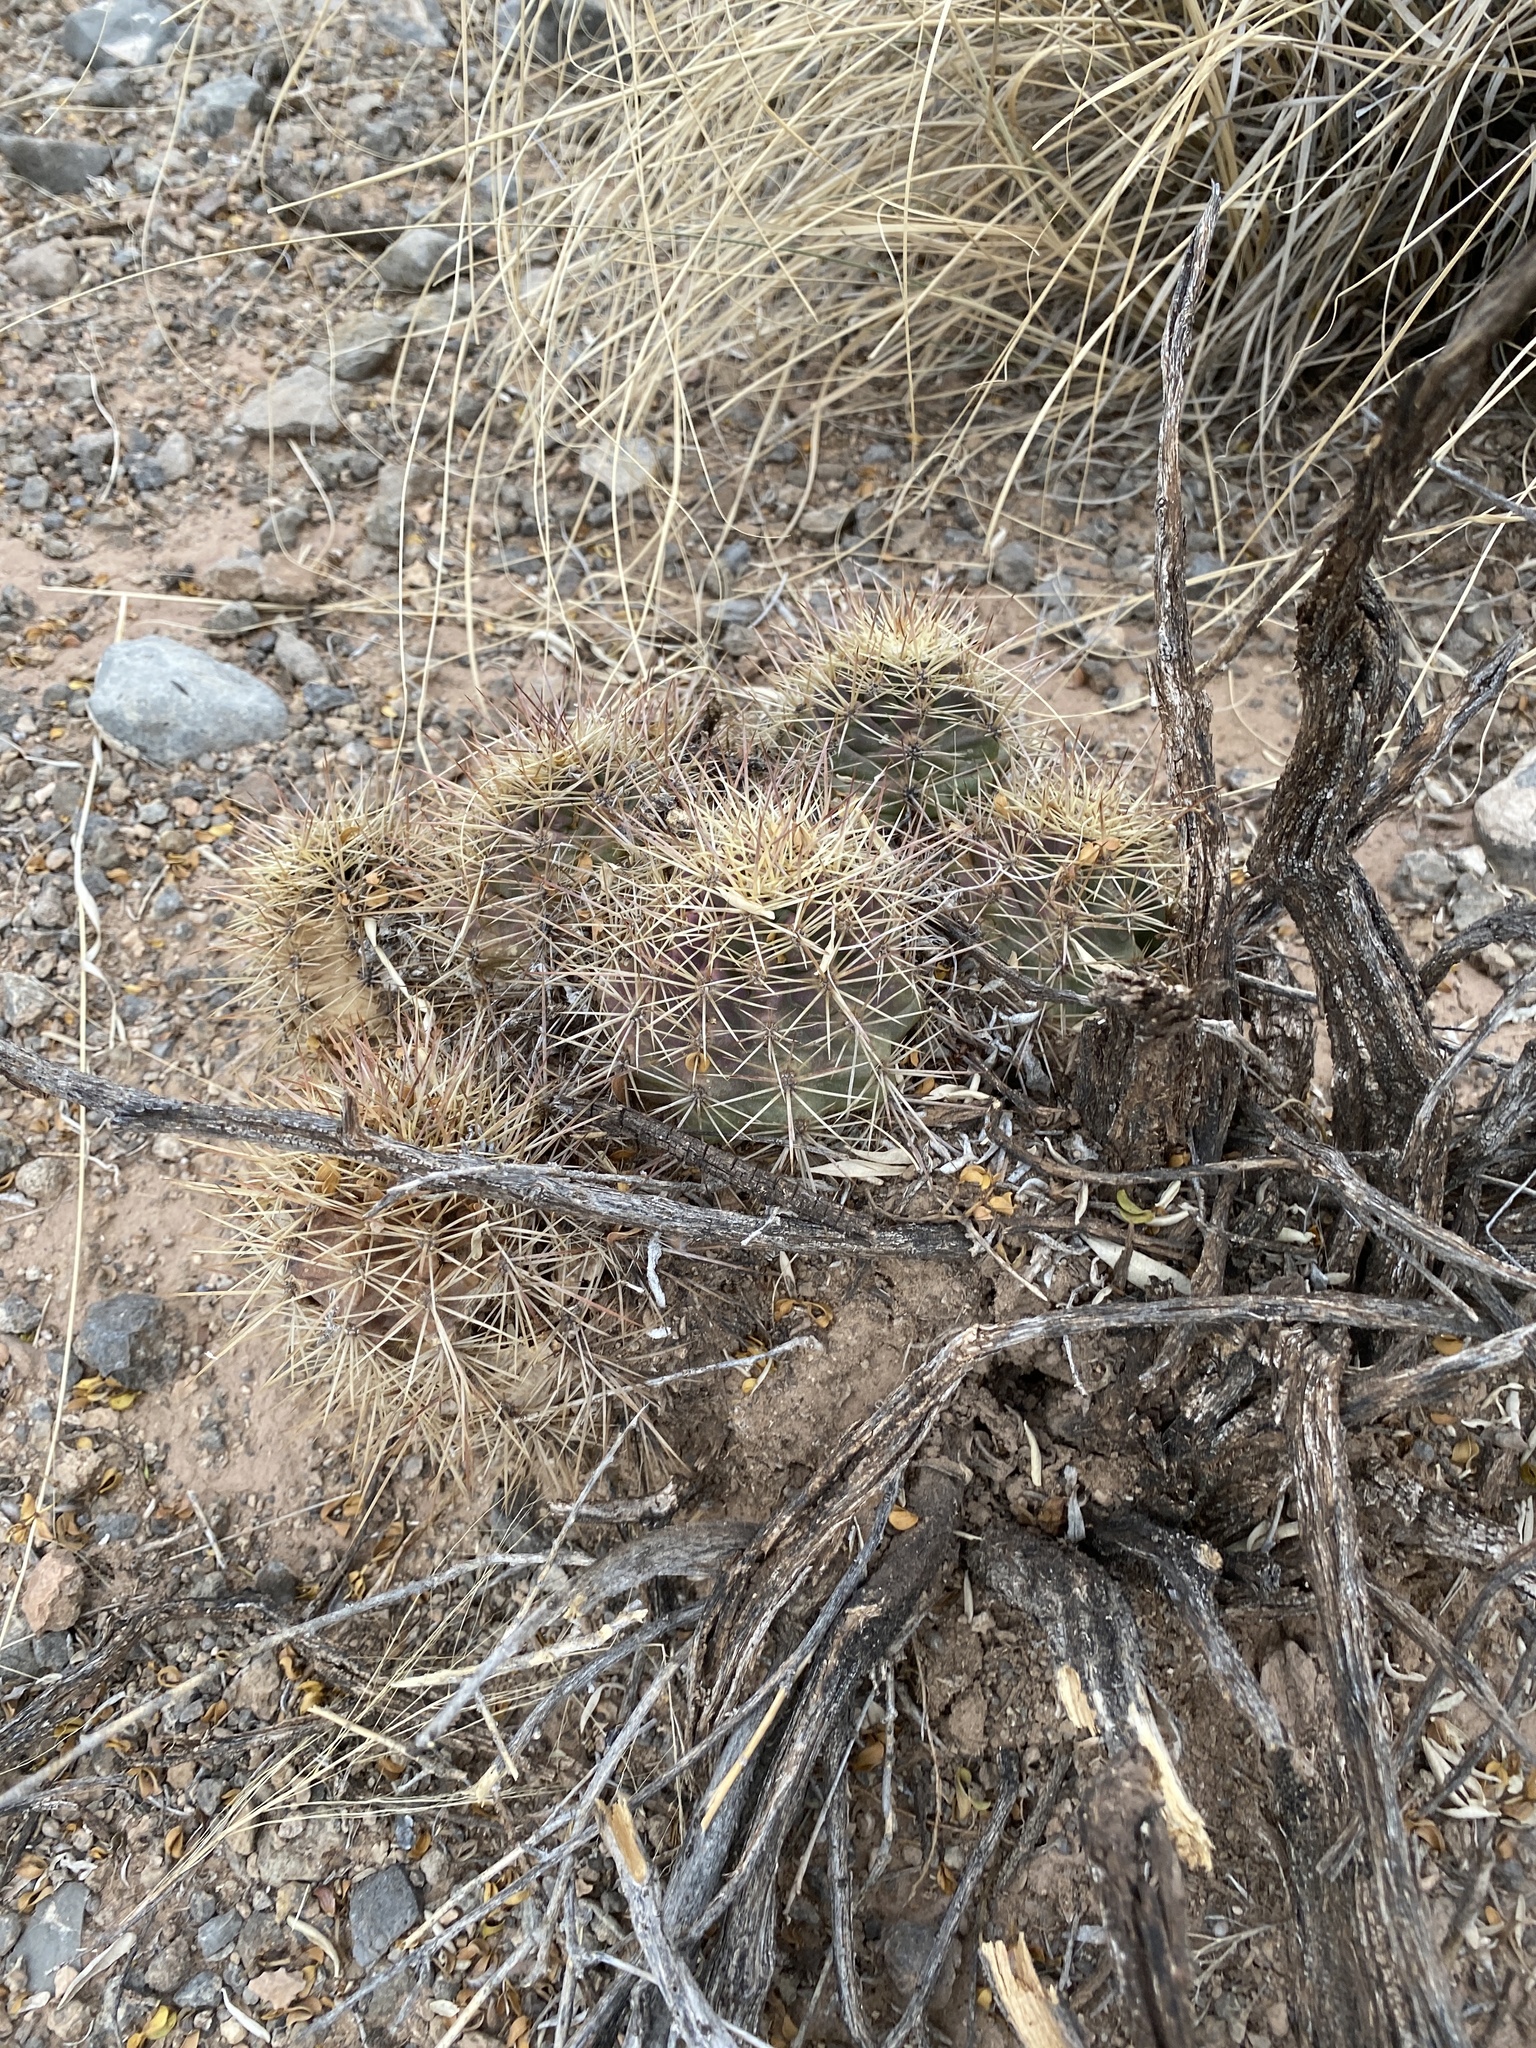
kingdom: Plantae
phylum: Tracheophyta
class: Magnoliopsida
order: Caryophyllales
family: Cactaceae
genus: Echinocereus
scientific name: Echinocereus coccineus
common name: Scarlet hedgehog cactus
